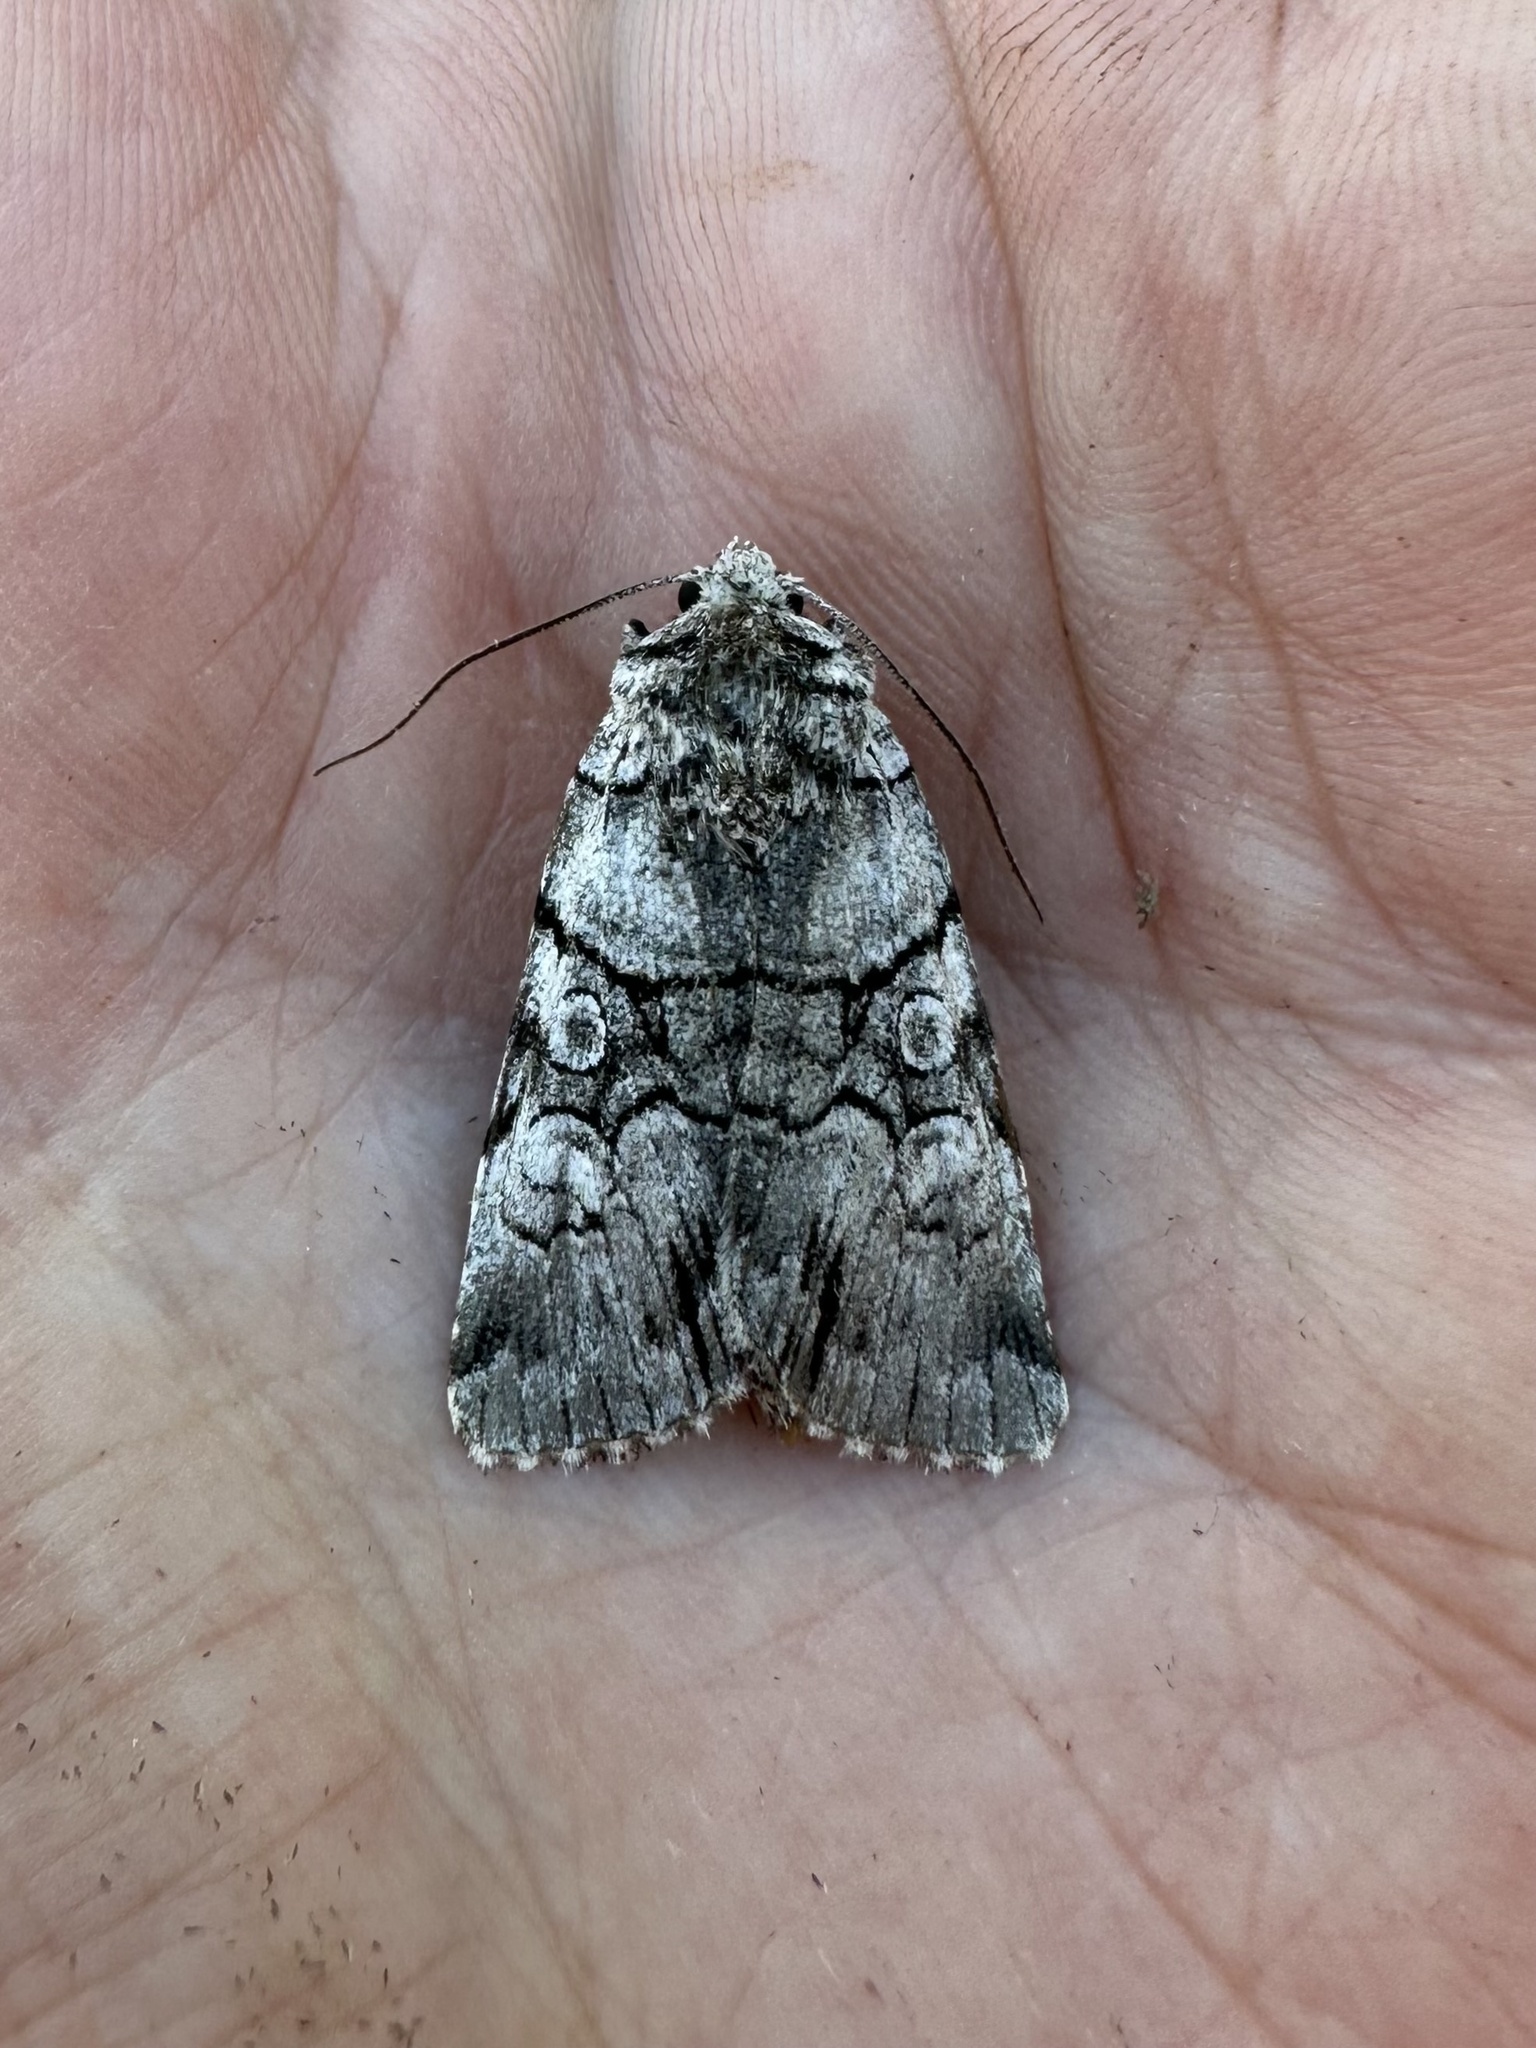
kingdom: Animalia
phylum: Arthropoda
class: Insecta
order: Lepidoptera
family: Noctuidae
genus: Sympistis
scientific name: Sympistis chionanthi
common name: Fringe-tree sallow
